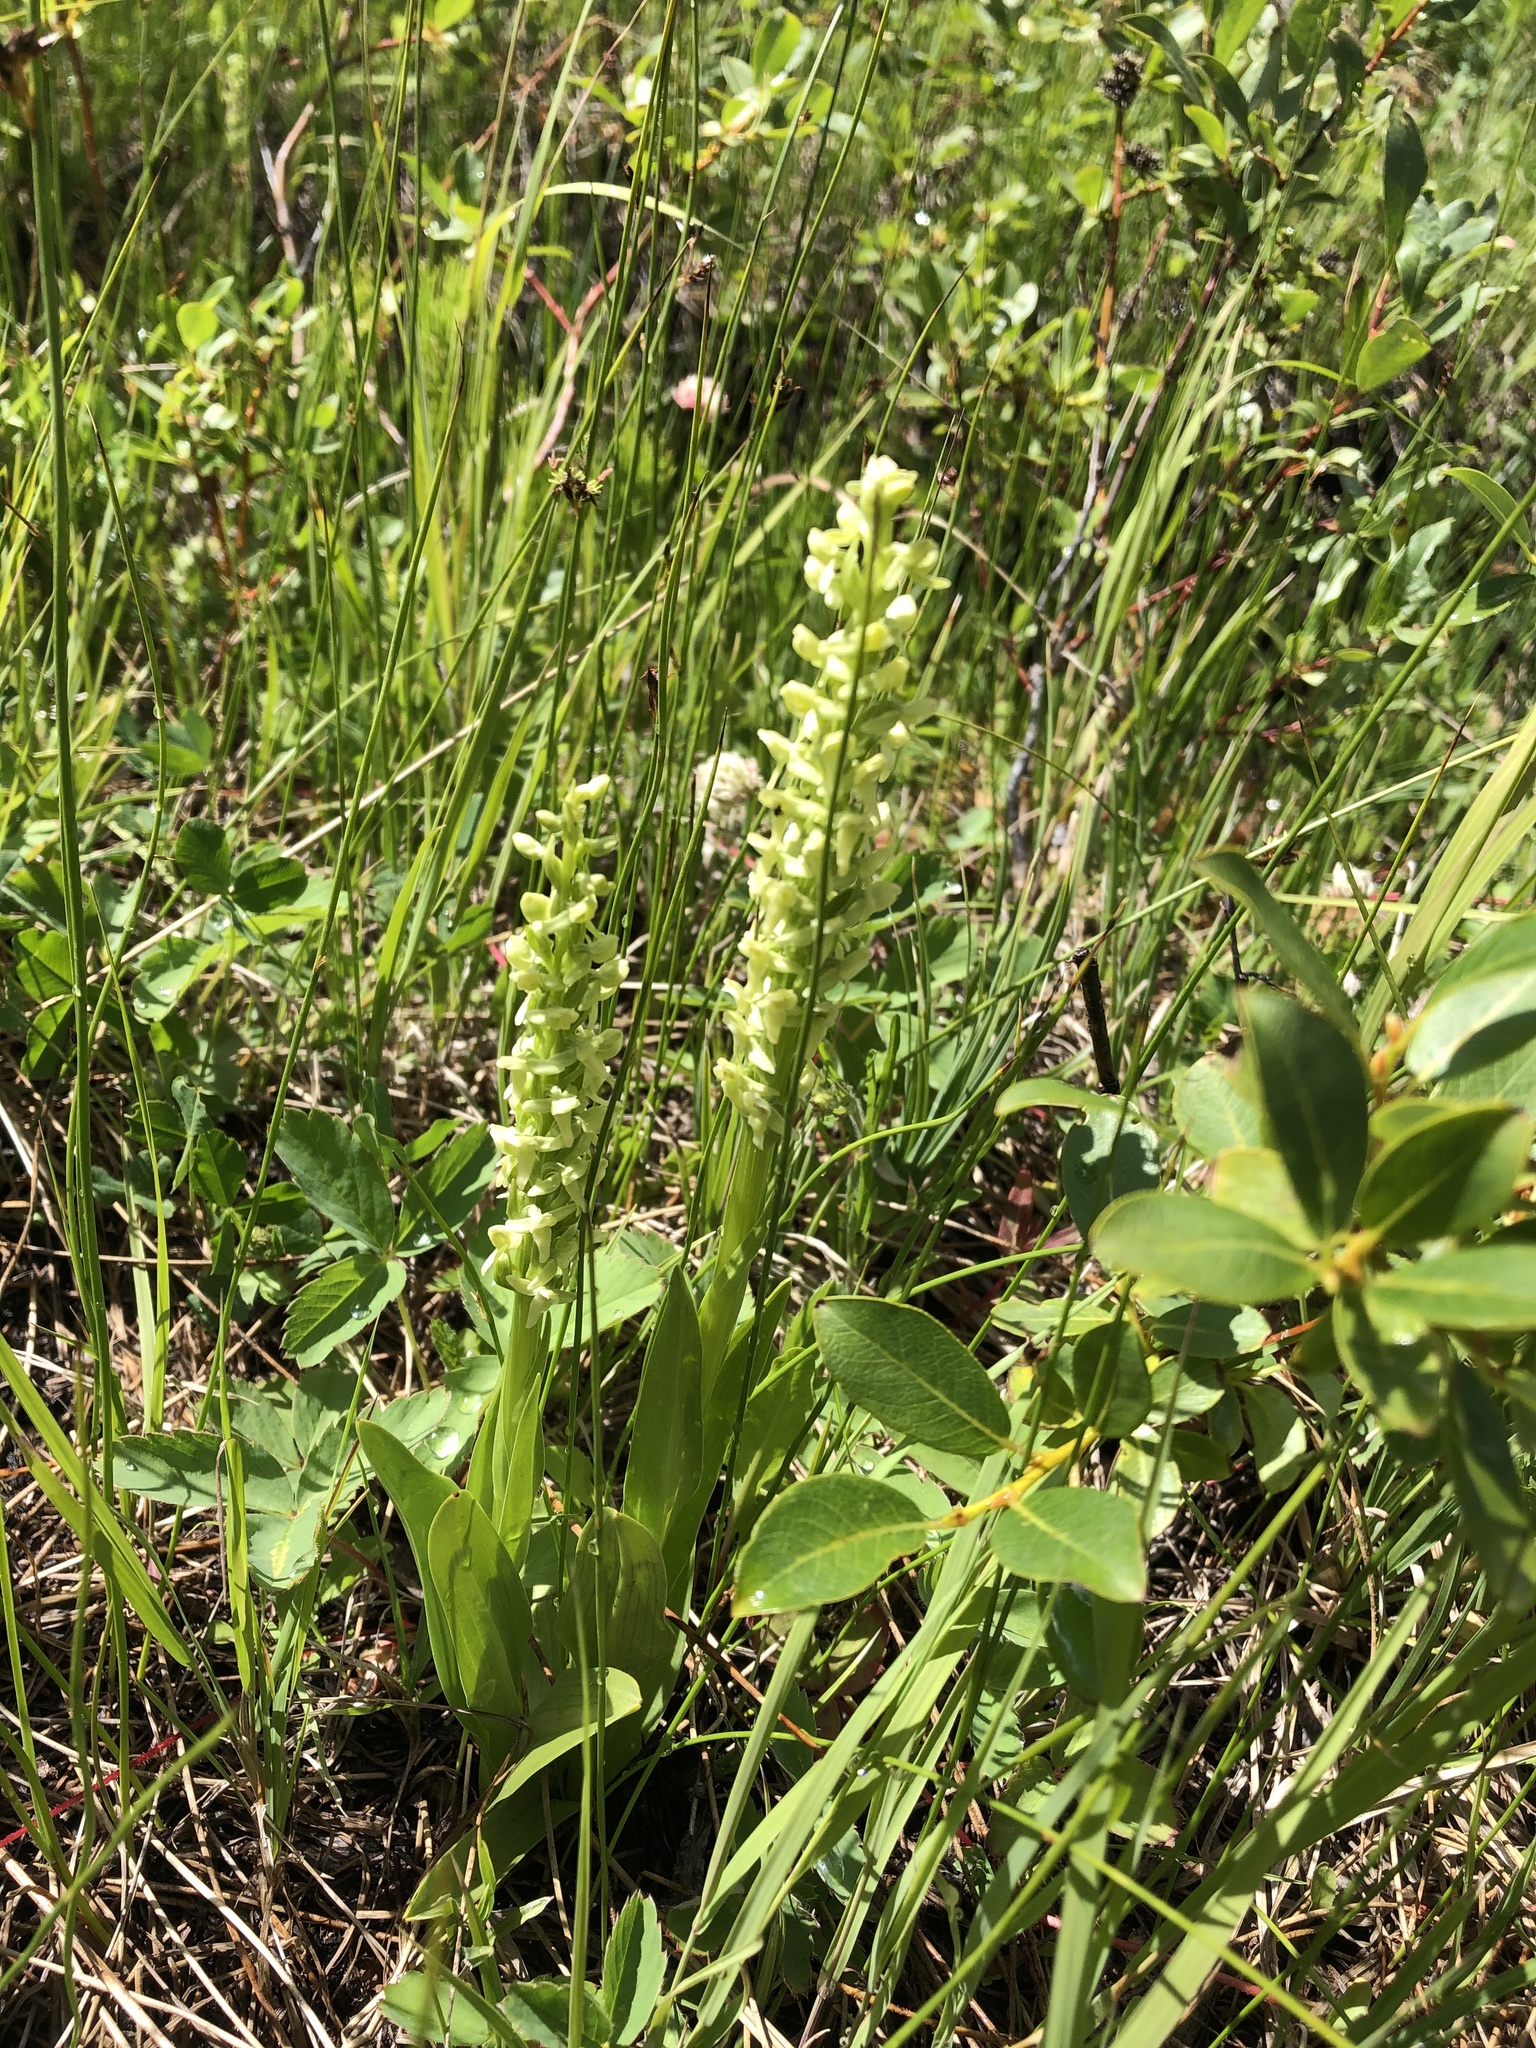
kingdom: Plantae
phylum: Tracheophyta
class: Liliopsida
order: Asparagales
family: Orchidaceae
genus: Platanthera
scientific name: Platanthera huronensis
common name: Fragrant green orchid
